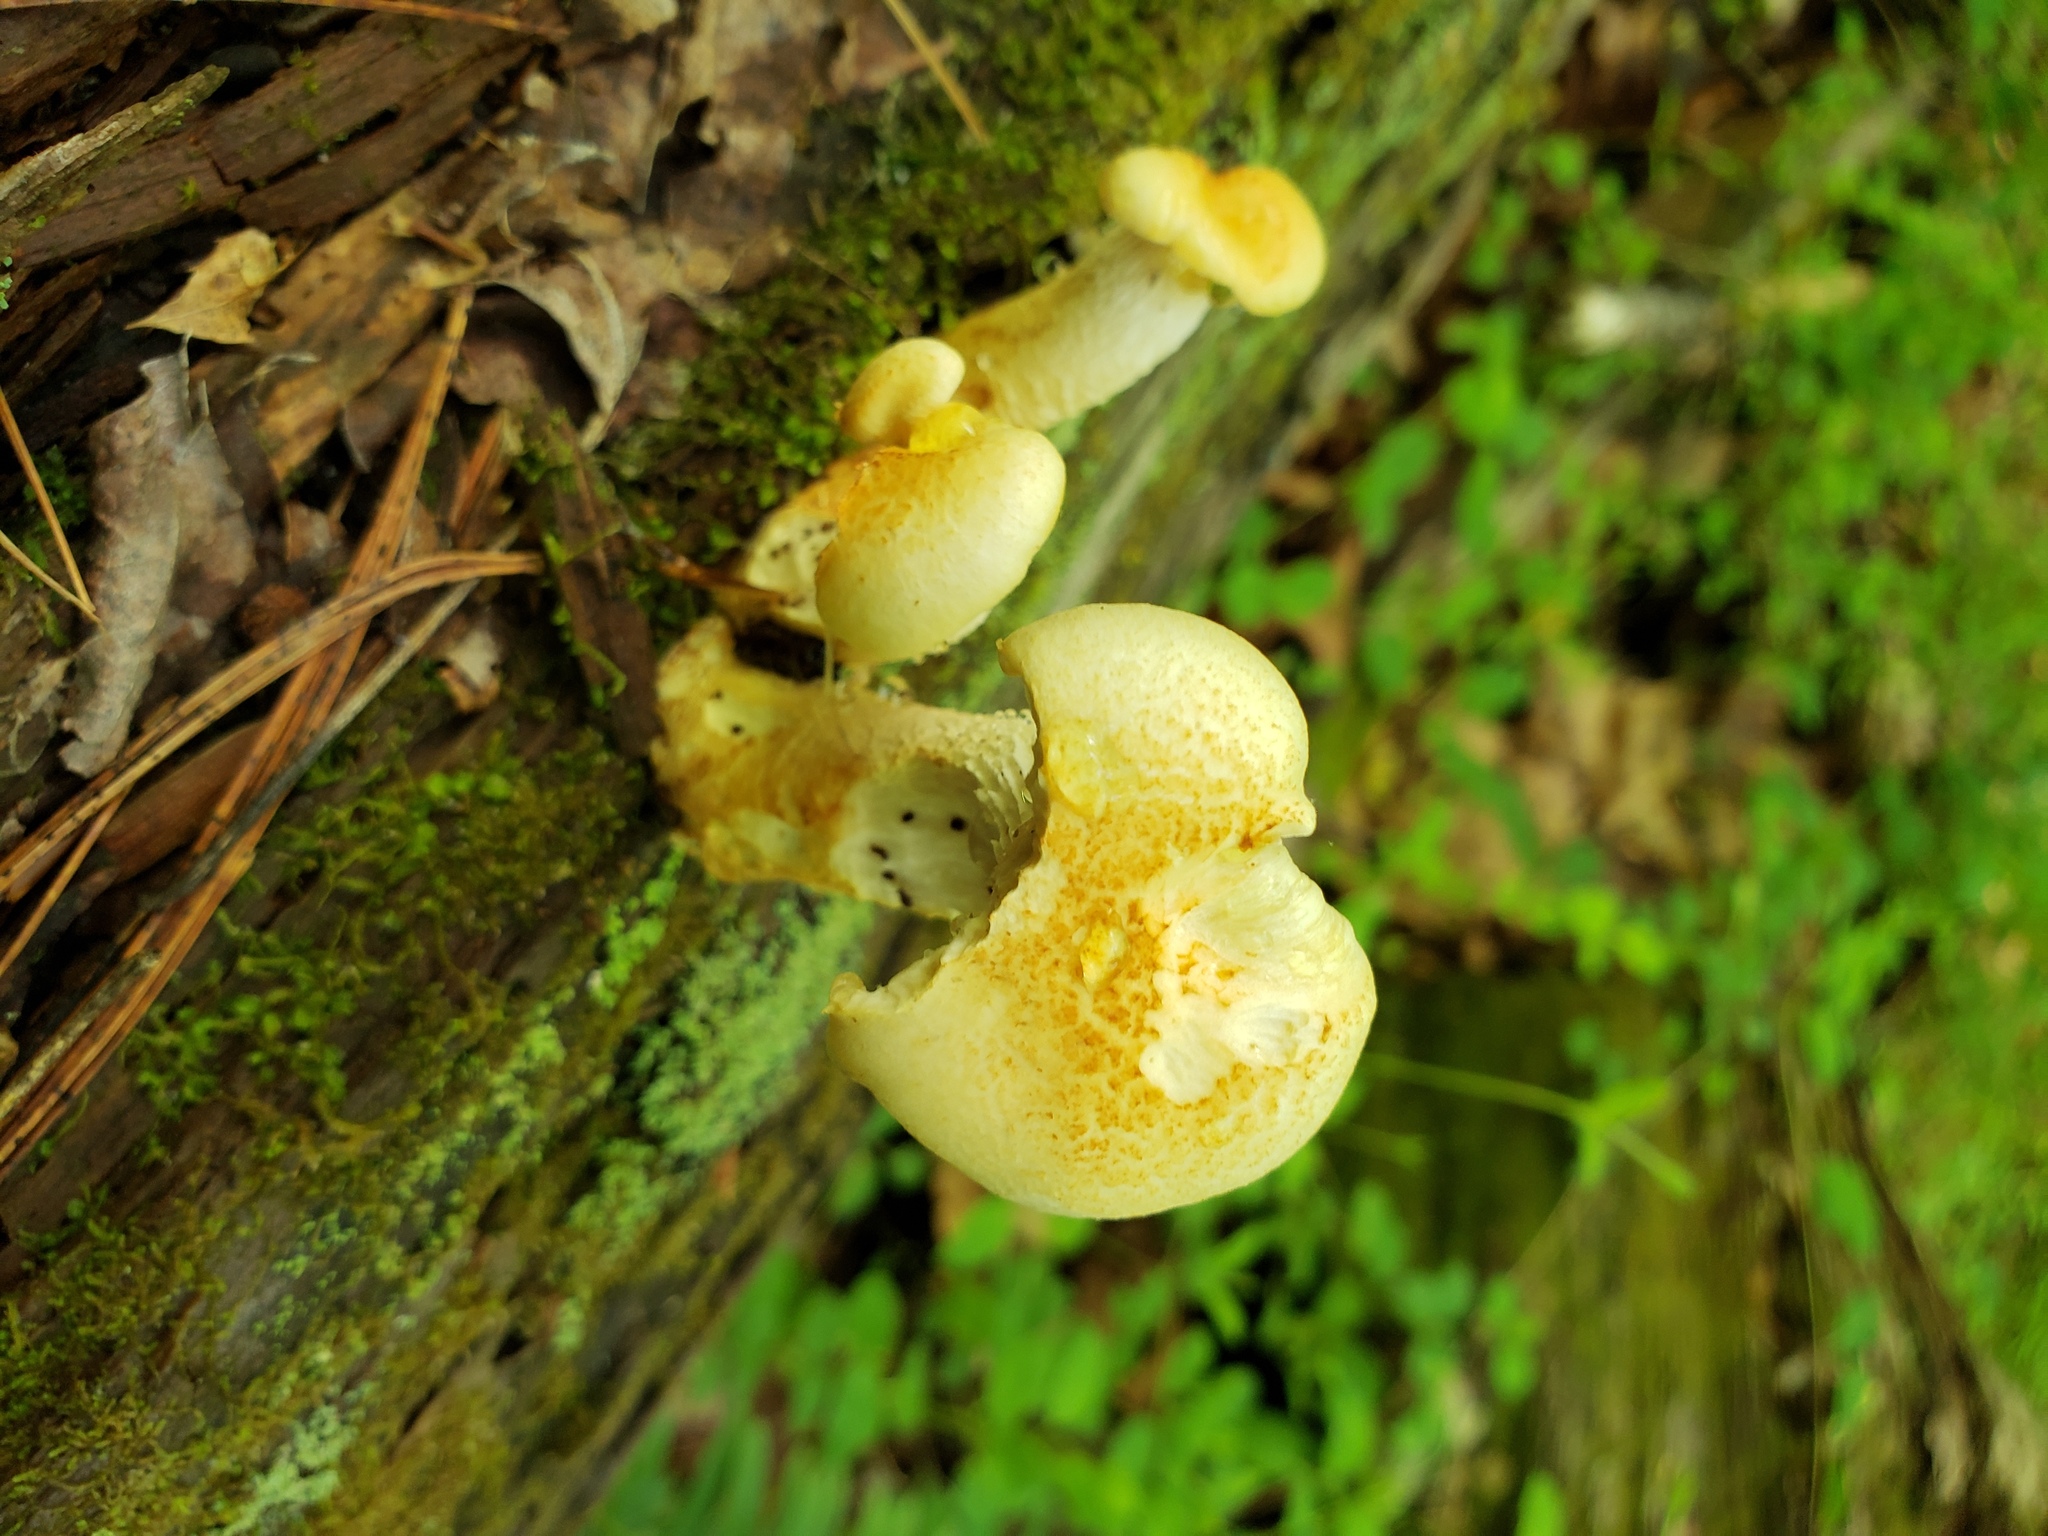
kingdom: Fungi
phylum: Basidiomycota
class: Agaricomycetes
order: Gloeophyllales
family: Gloeophyllaceae
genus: Neolentinus
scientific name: Neolentinus lepideus
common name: Scaly sawgill
